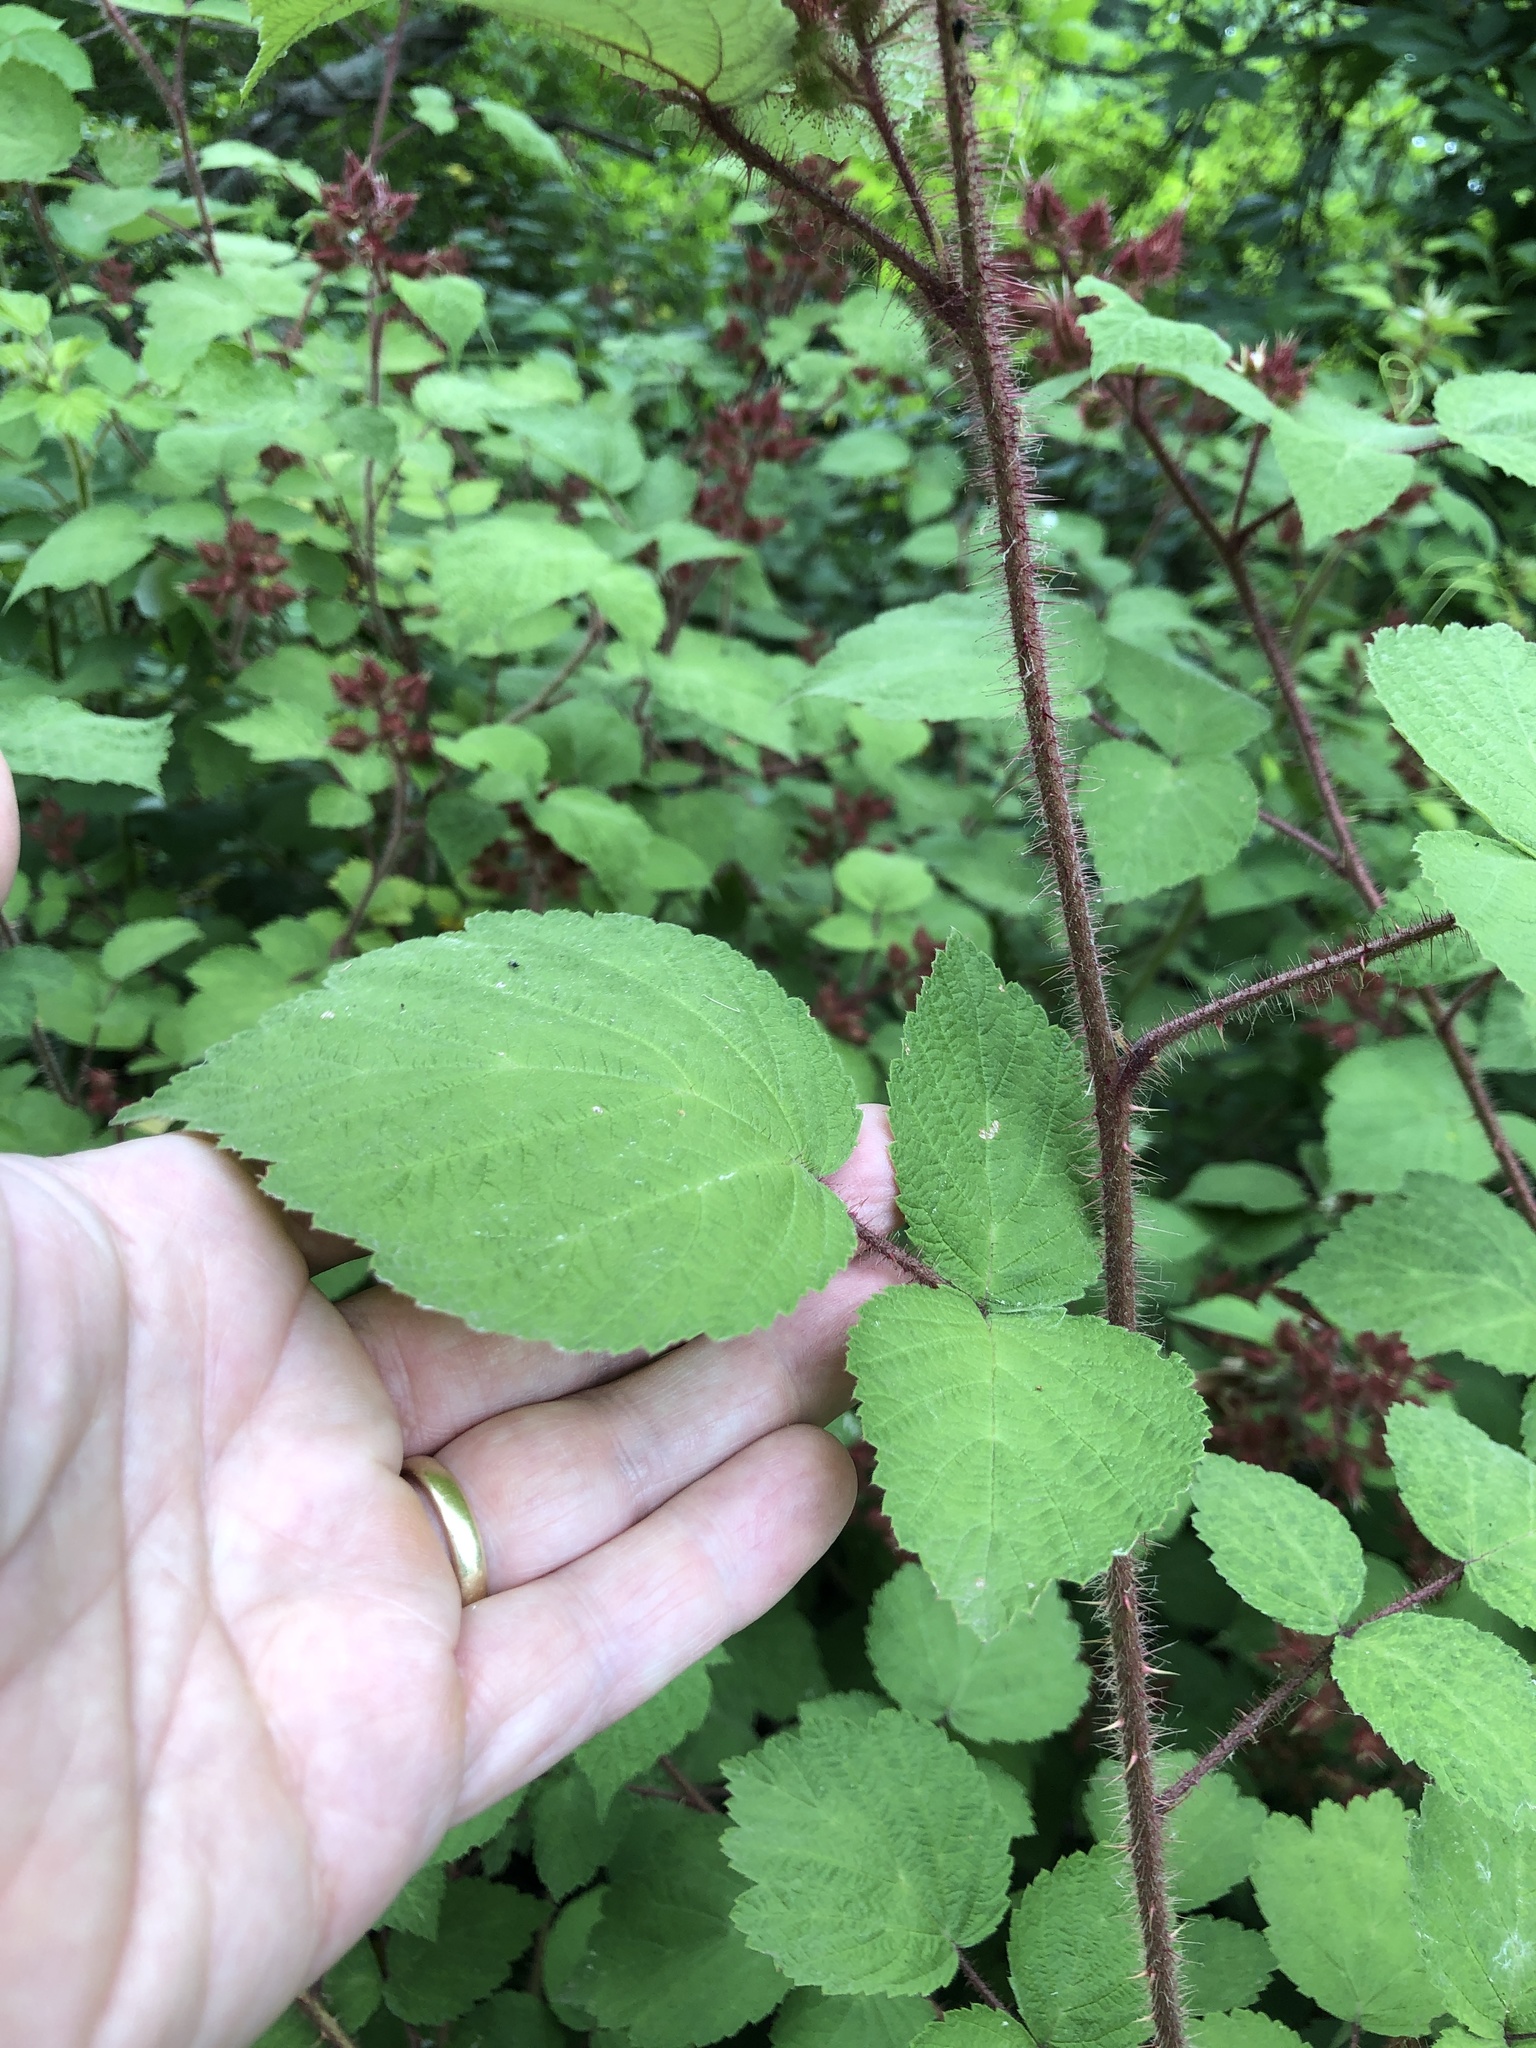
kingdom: Plantae
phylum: Tracheophyta
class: Magnoliopsida
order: Rosales
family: Rosaceae
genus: Rubus
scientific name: Rubus phoenicolasius
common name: Japanese wineberry
